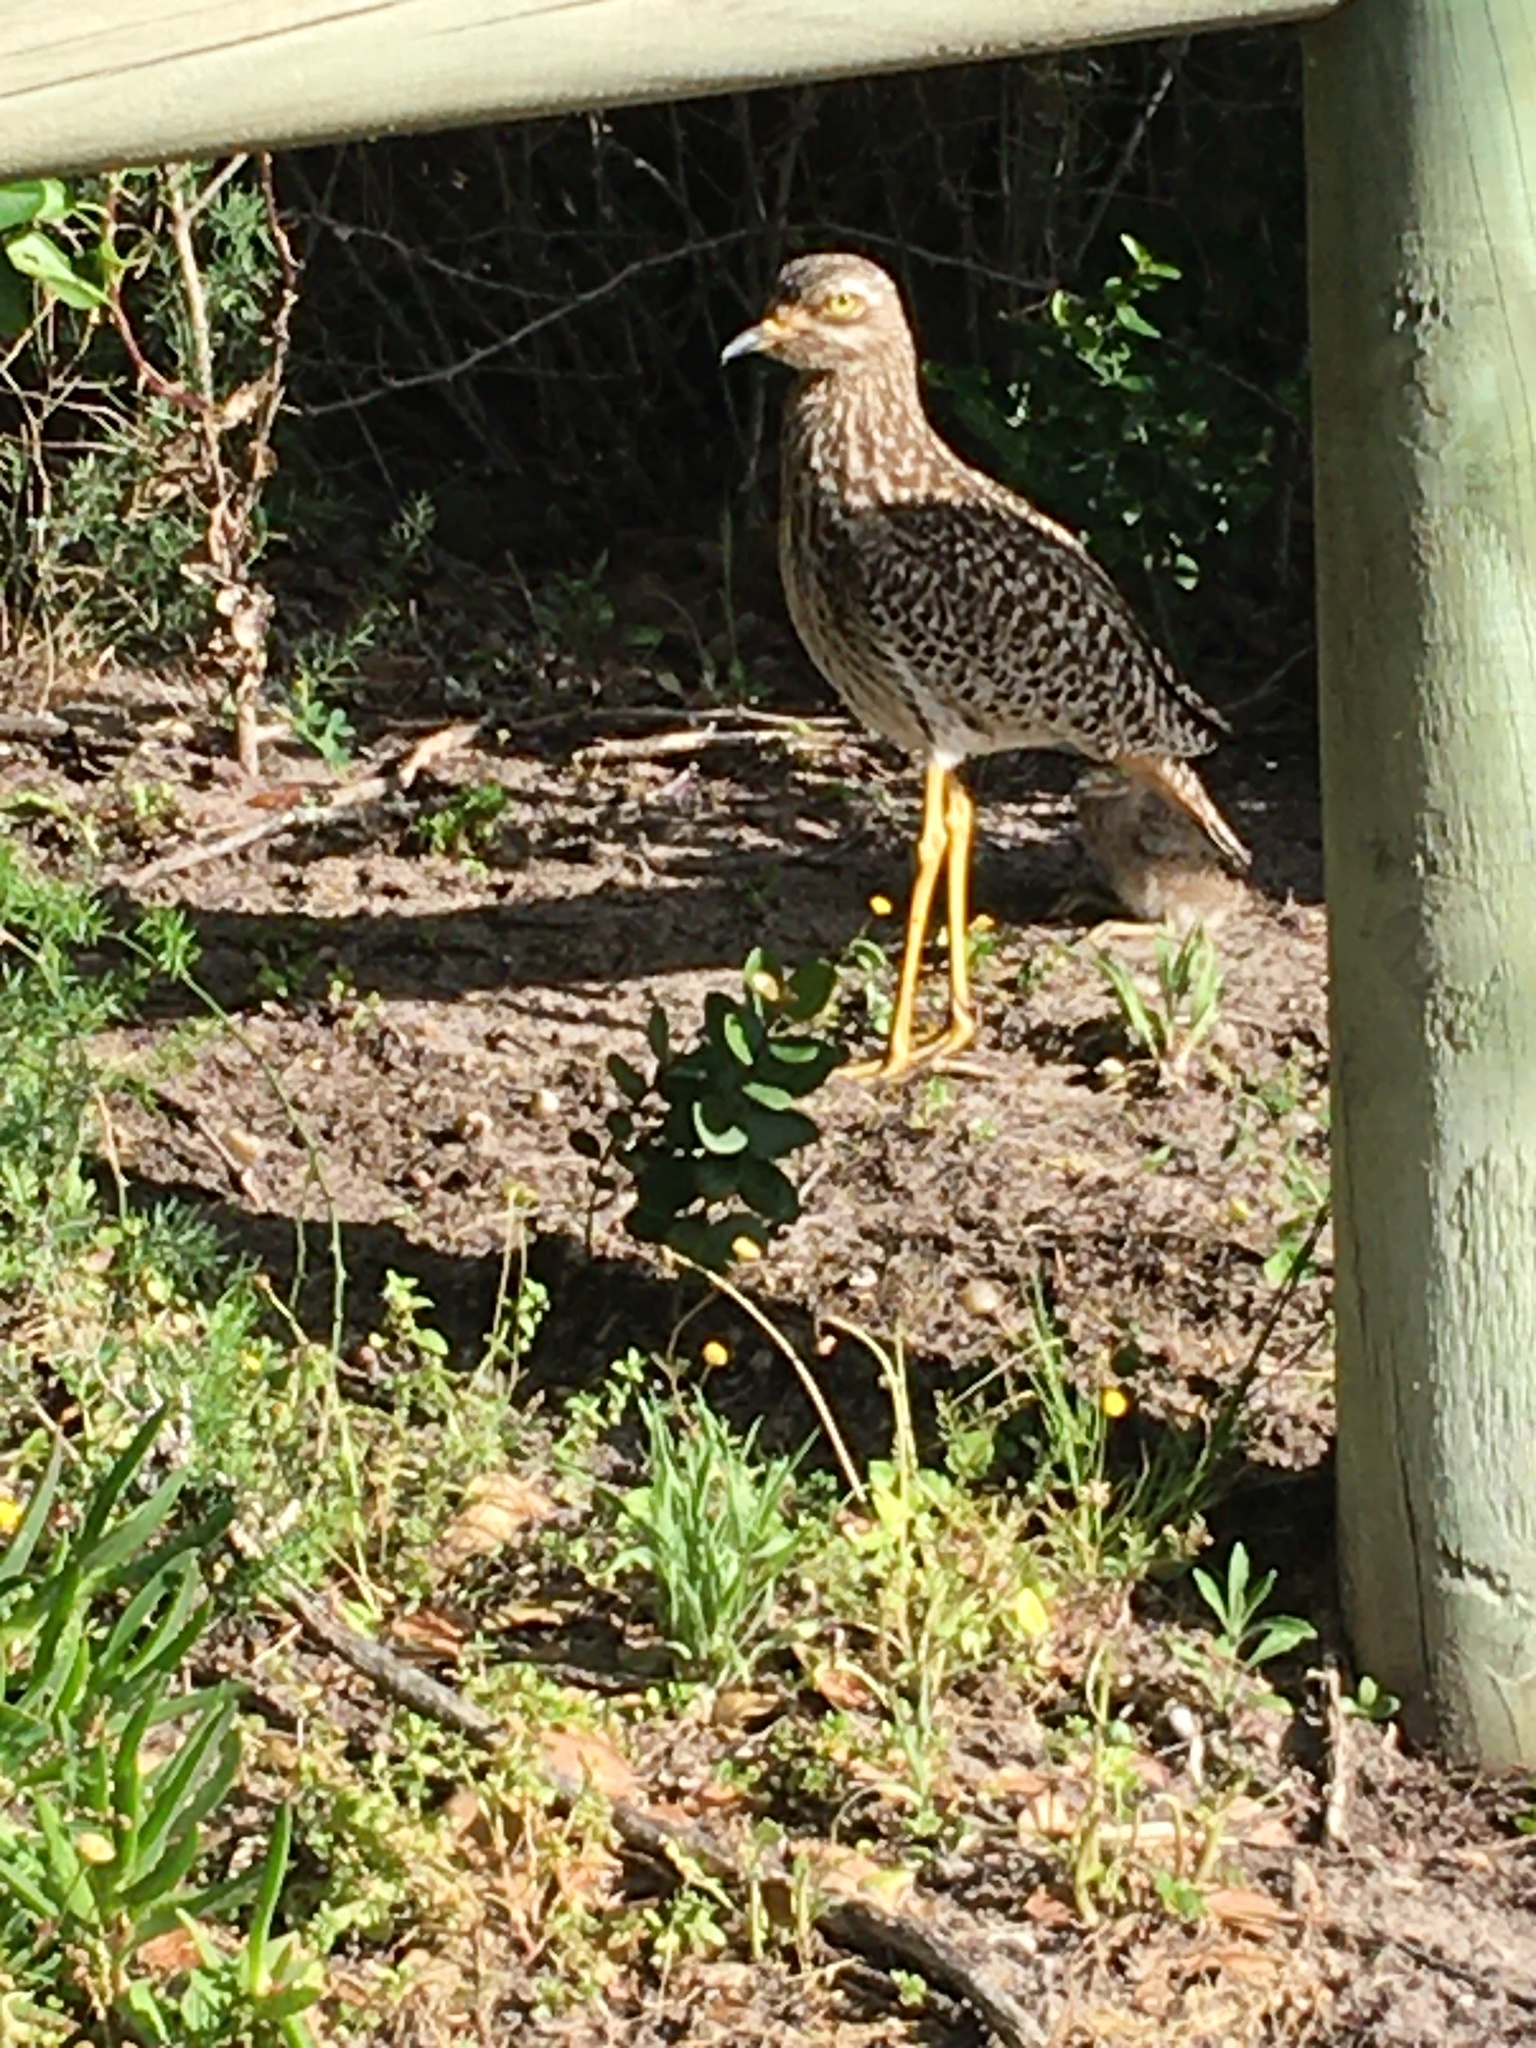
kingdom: Animalia
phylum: Chordata
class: Aves
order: Charadriiformes
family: Burhinidae
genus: Burhinus
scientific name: Burhinus capensis
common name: Spotted thick-knee
